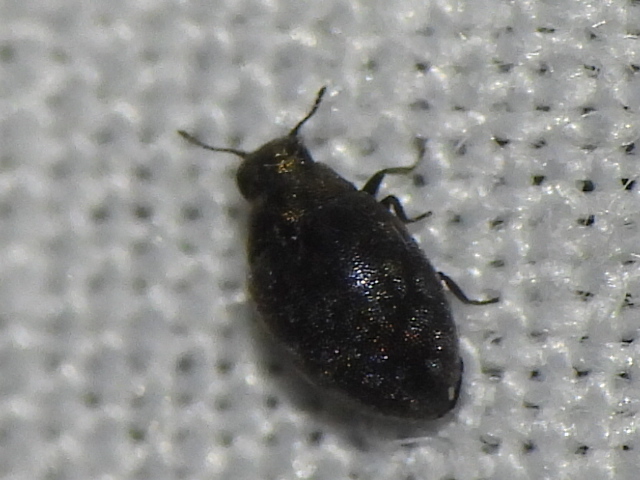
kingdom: Animalia
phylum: Arthropoda
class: Insecta
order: Coleoptera
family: Limnichidae
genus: Eulimnichus
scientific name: Eulimnichus ater
